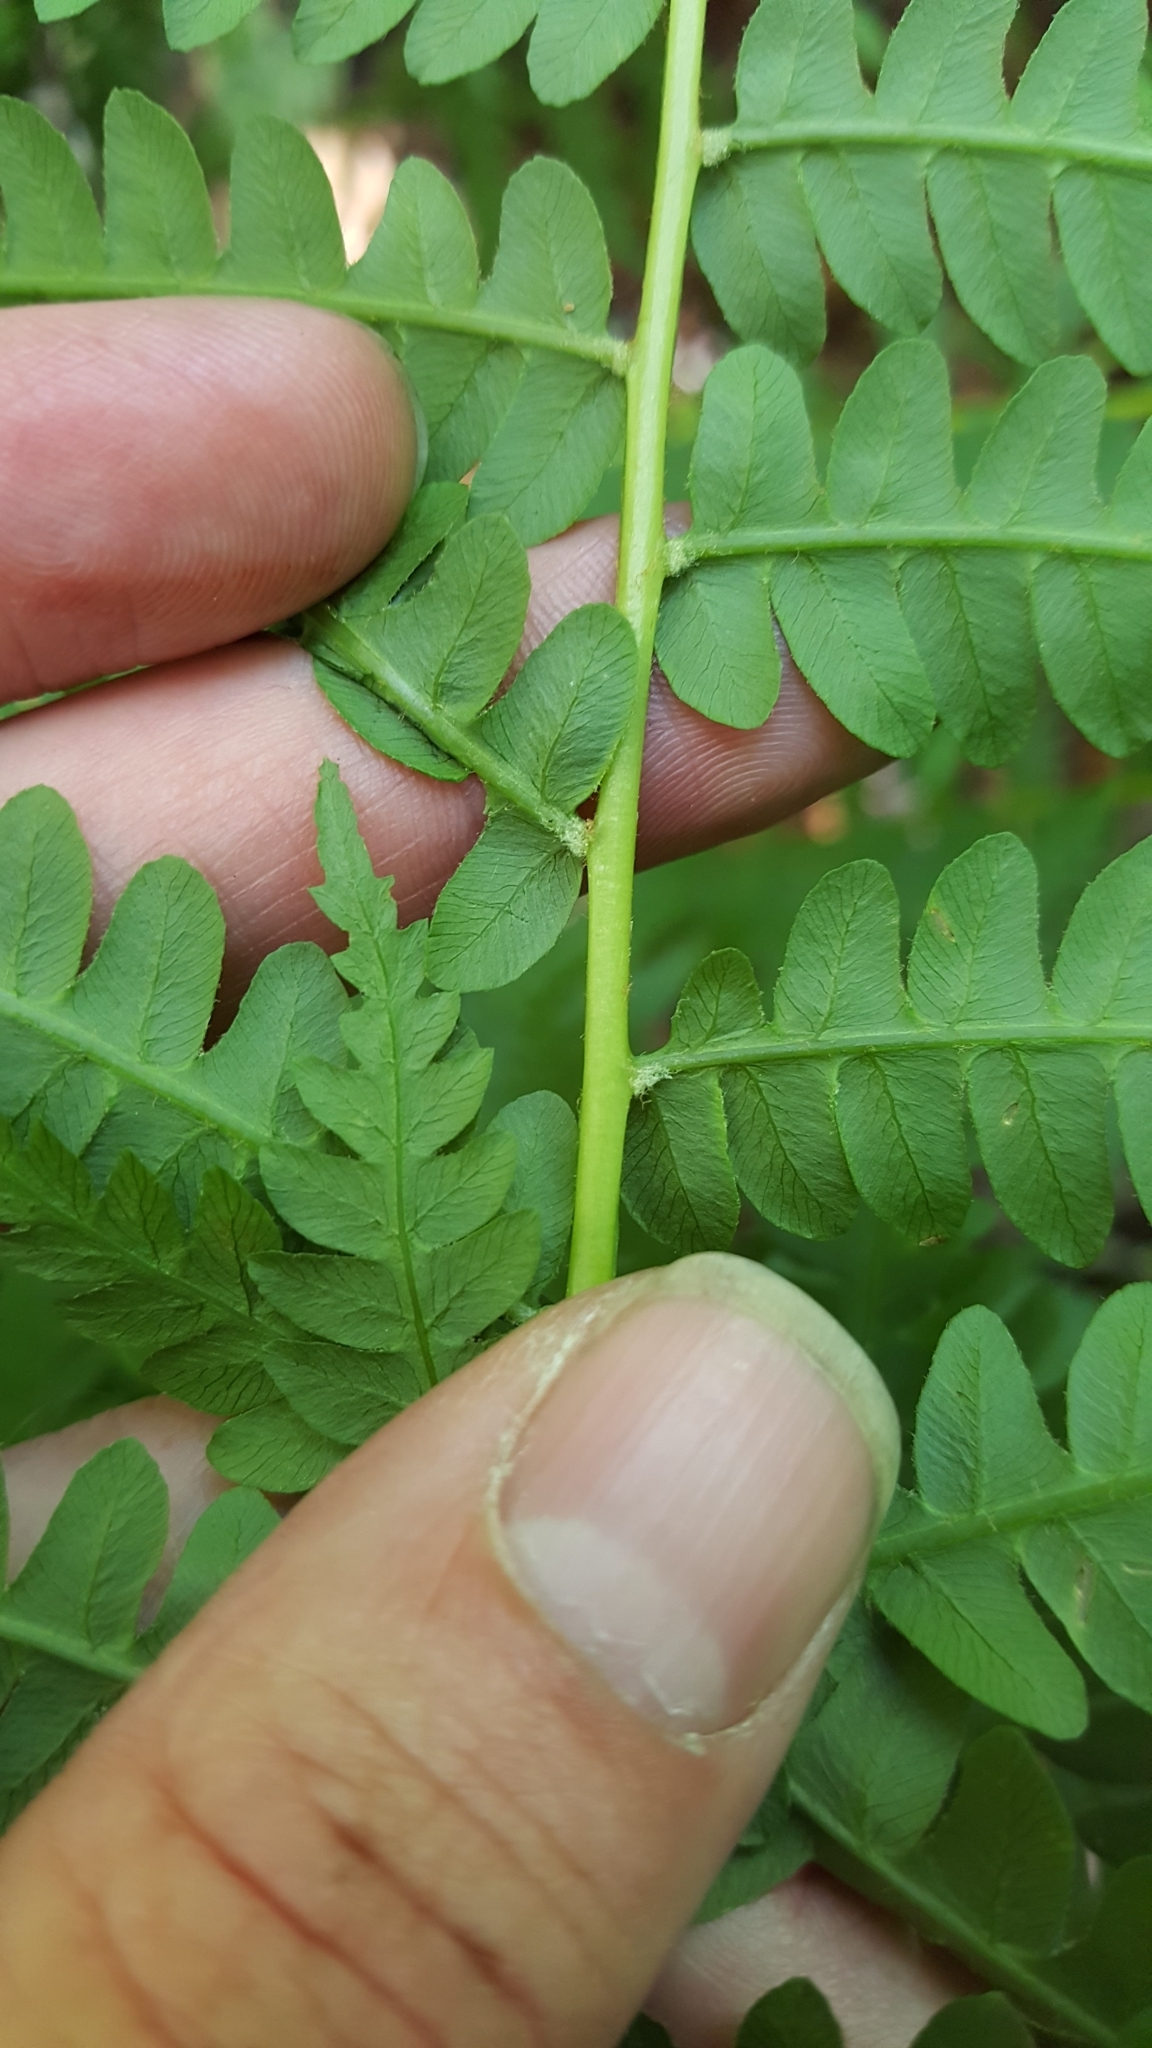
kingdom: Plantae
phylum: Tracheophyta
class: Polypodiopsida
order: Osmundales
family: Osmundaceae
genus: Osmundastrum
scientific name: Osmundastrum cinnamomeum
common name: Cinnamon fern
